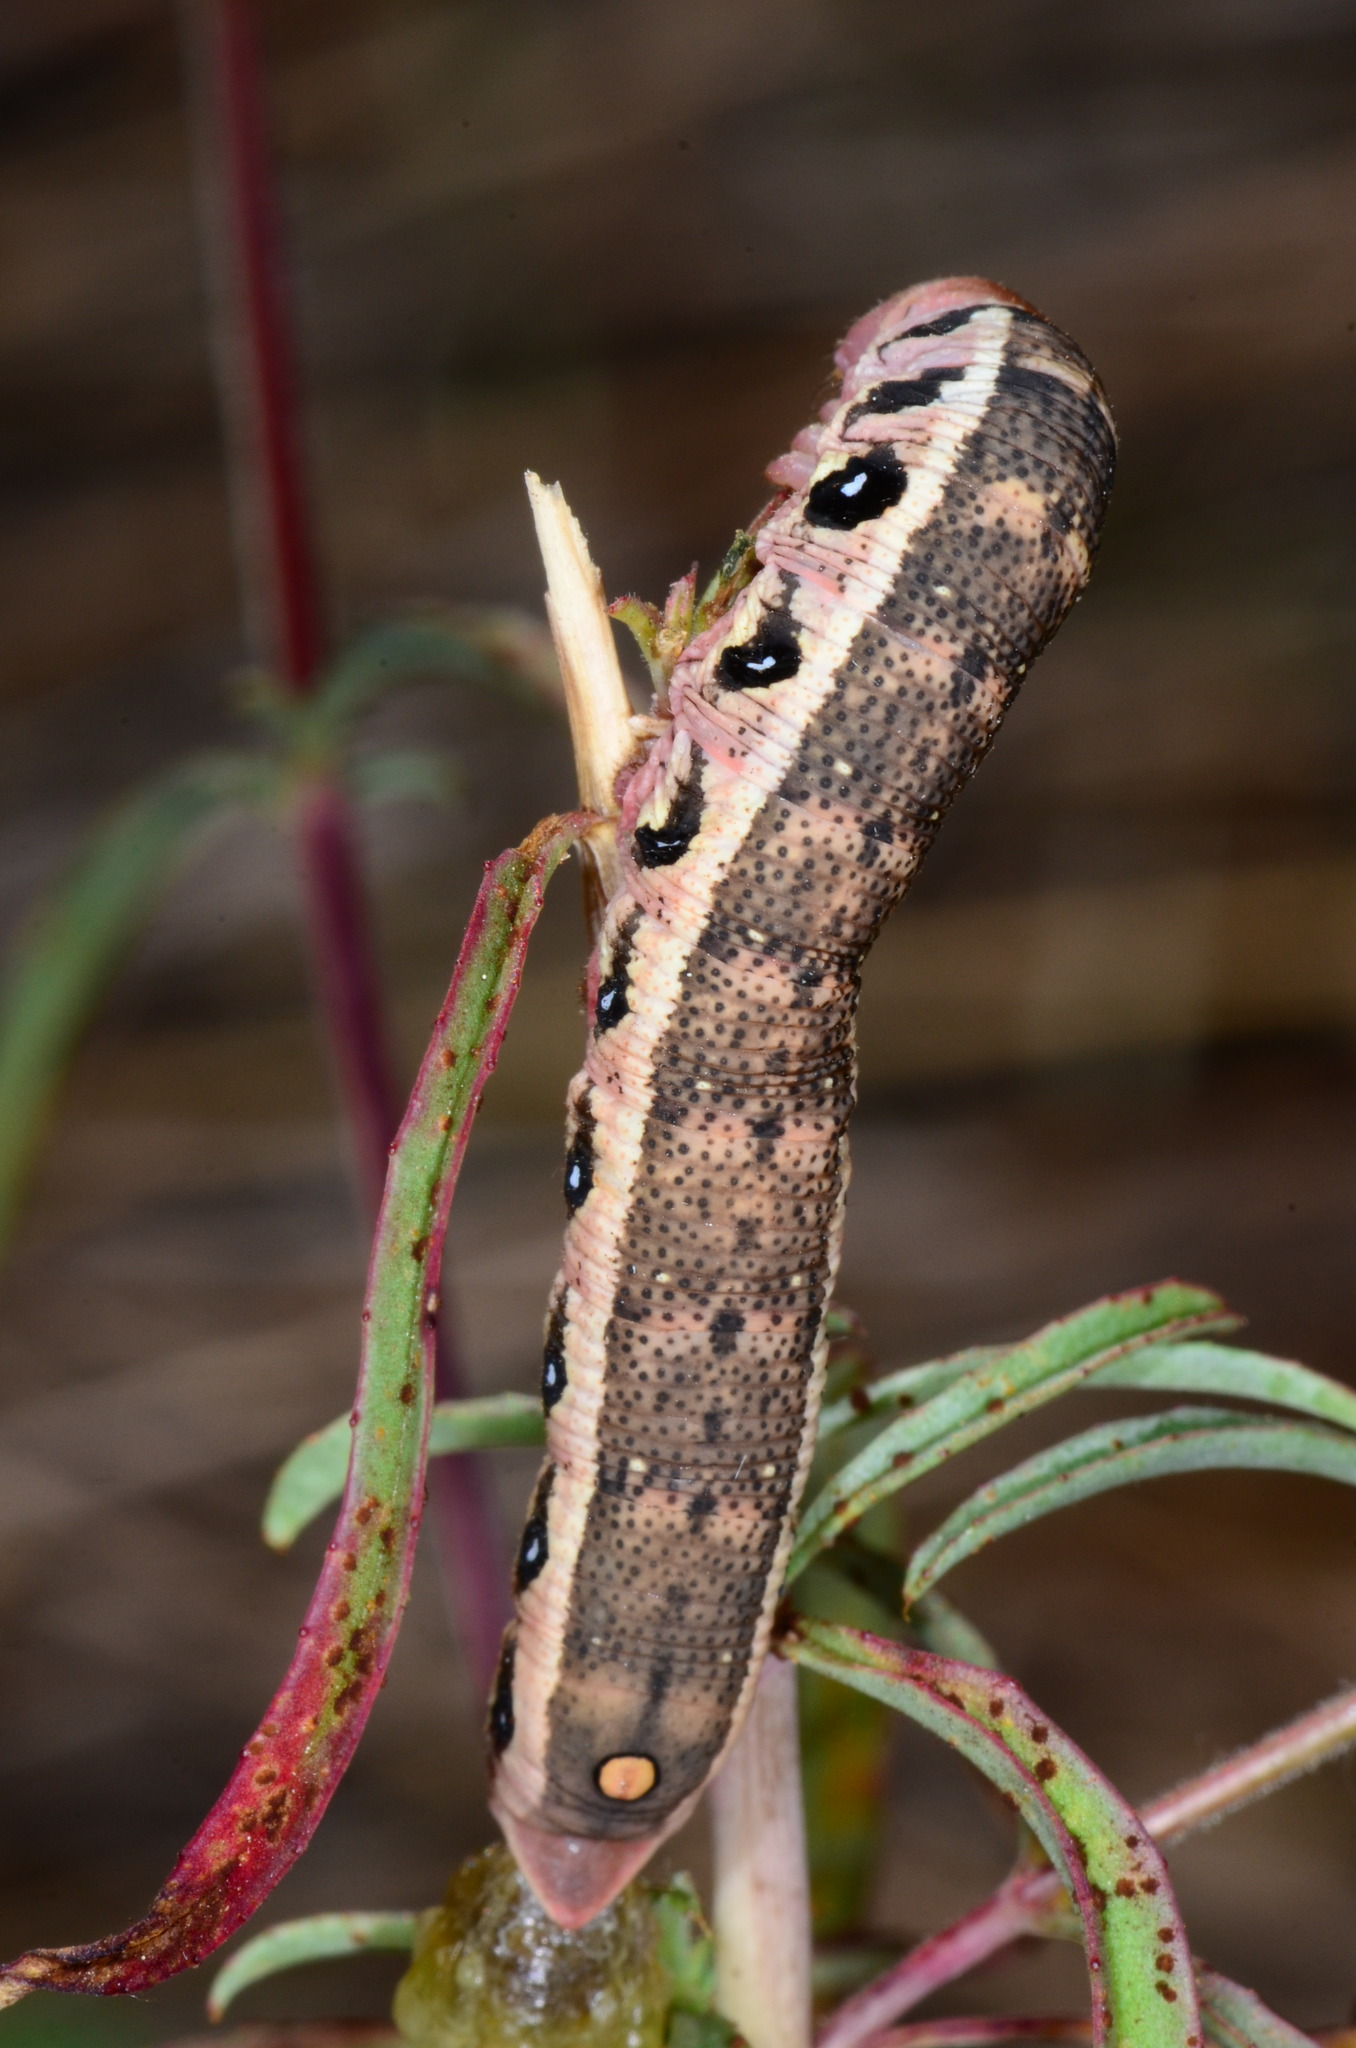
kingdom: Animalia
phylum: Arthropoda
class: Insecta
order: Lepidoptera
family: Sphingidae
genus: Proserpinus
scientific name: Proserpinus clarkiae
